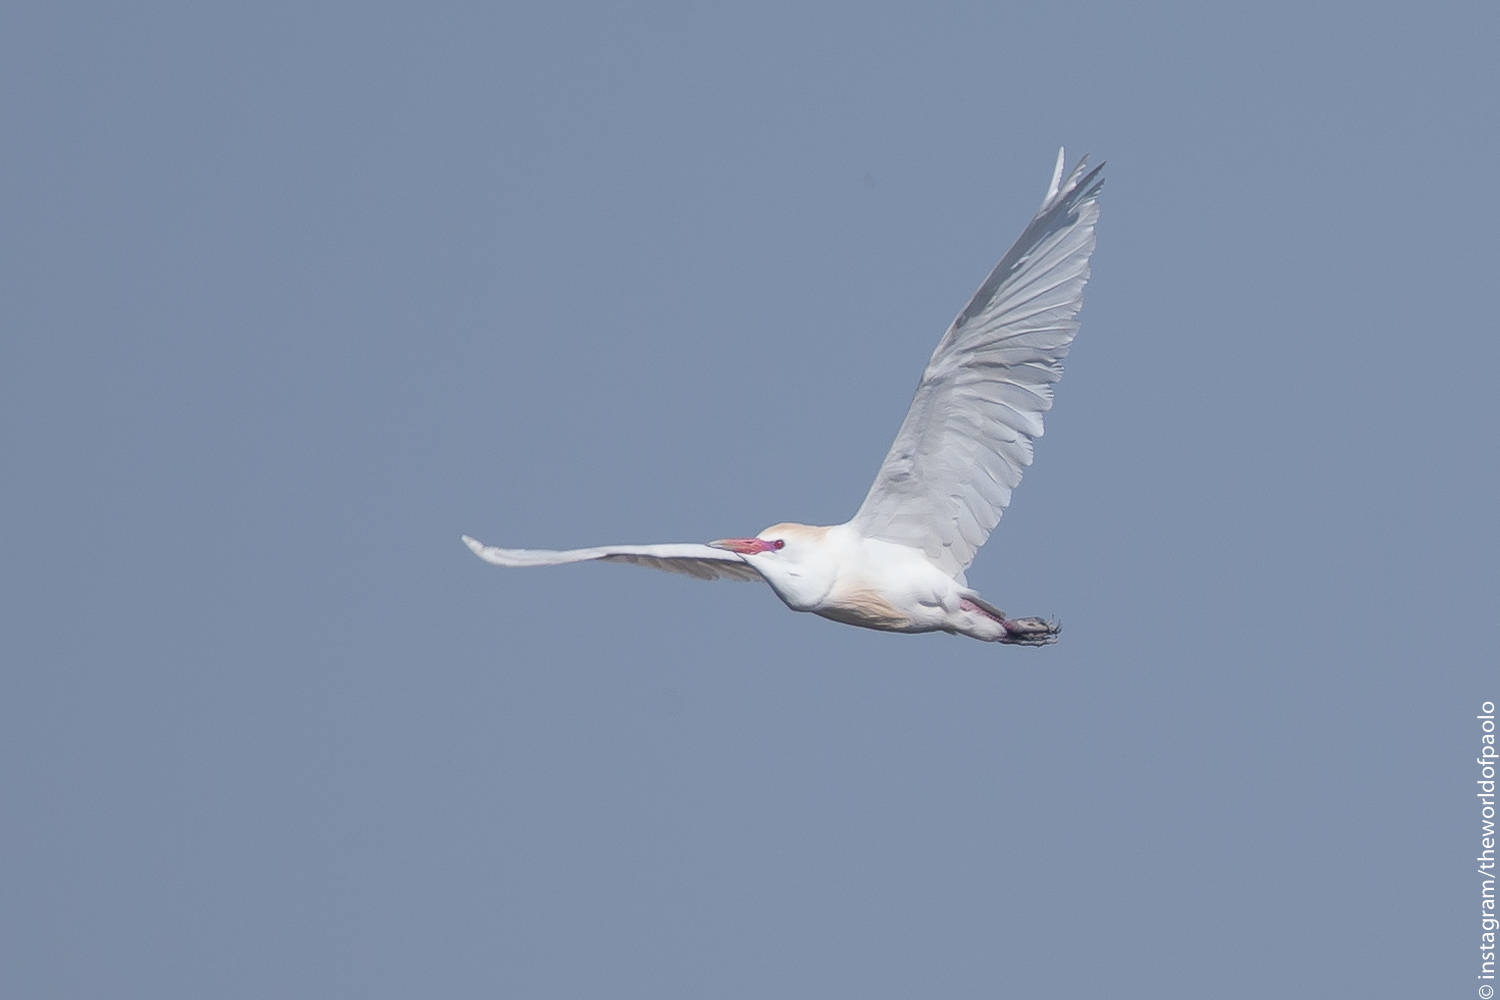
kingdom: Animalia
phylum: Chordata
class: Aves
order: Pelecaniformes
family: Ardeidae
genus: Bubulcus
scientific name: Bubulcus ibis
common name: Cattle egret
